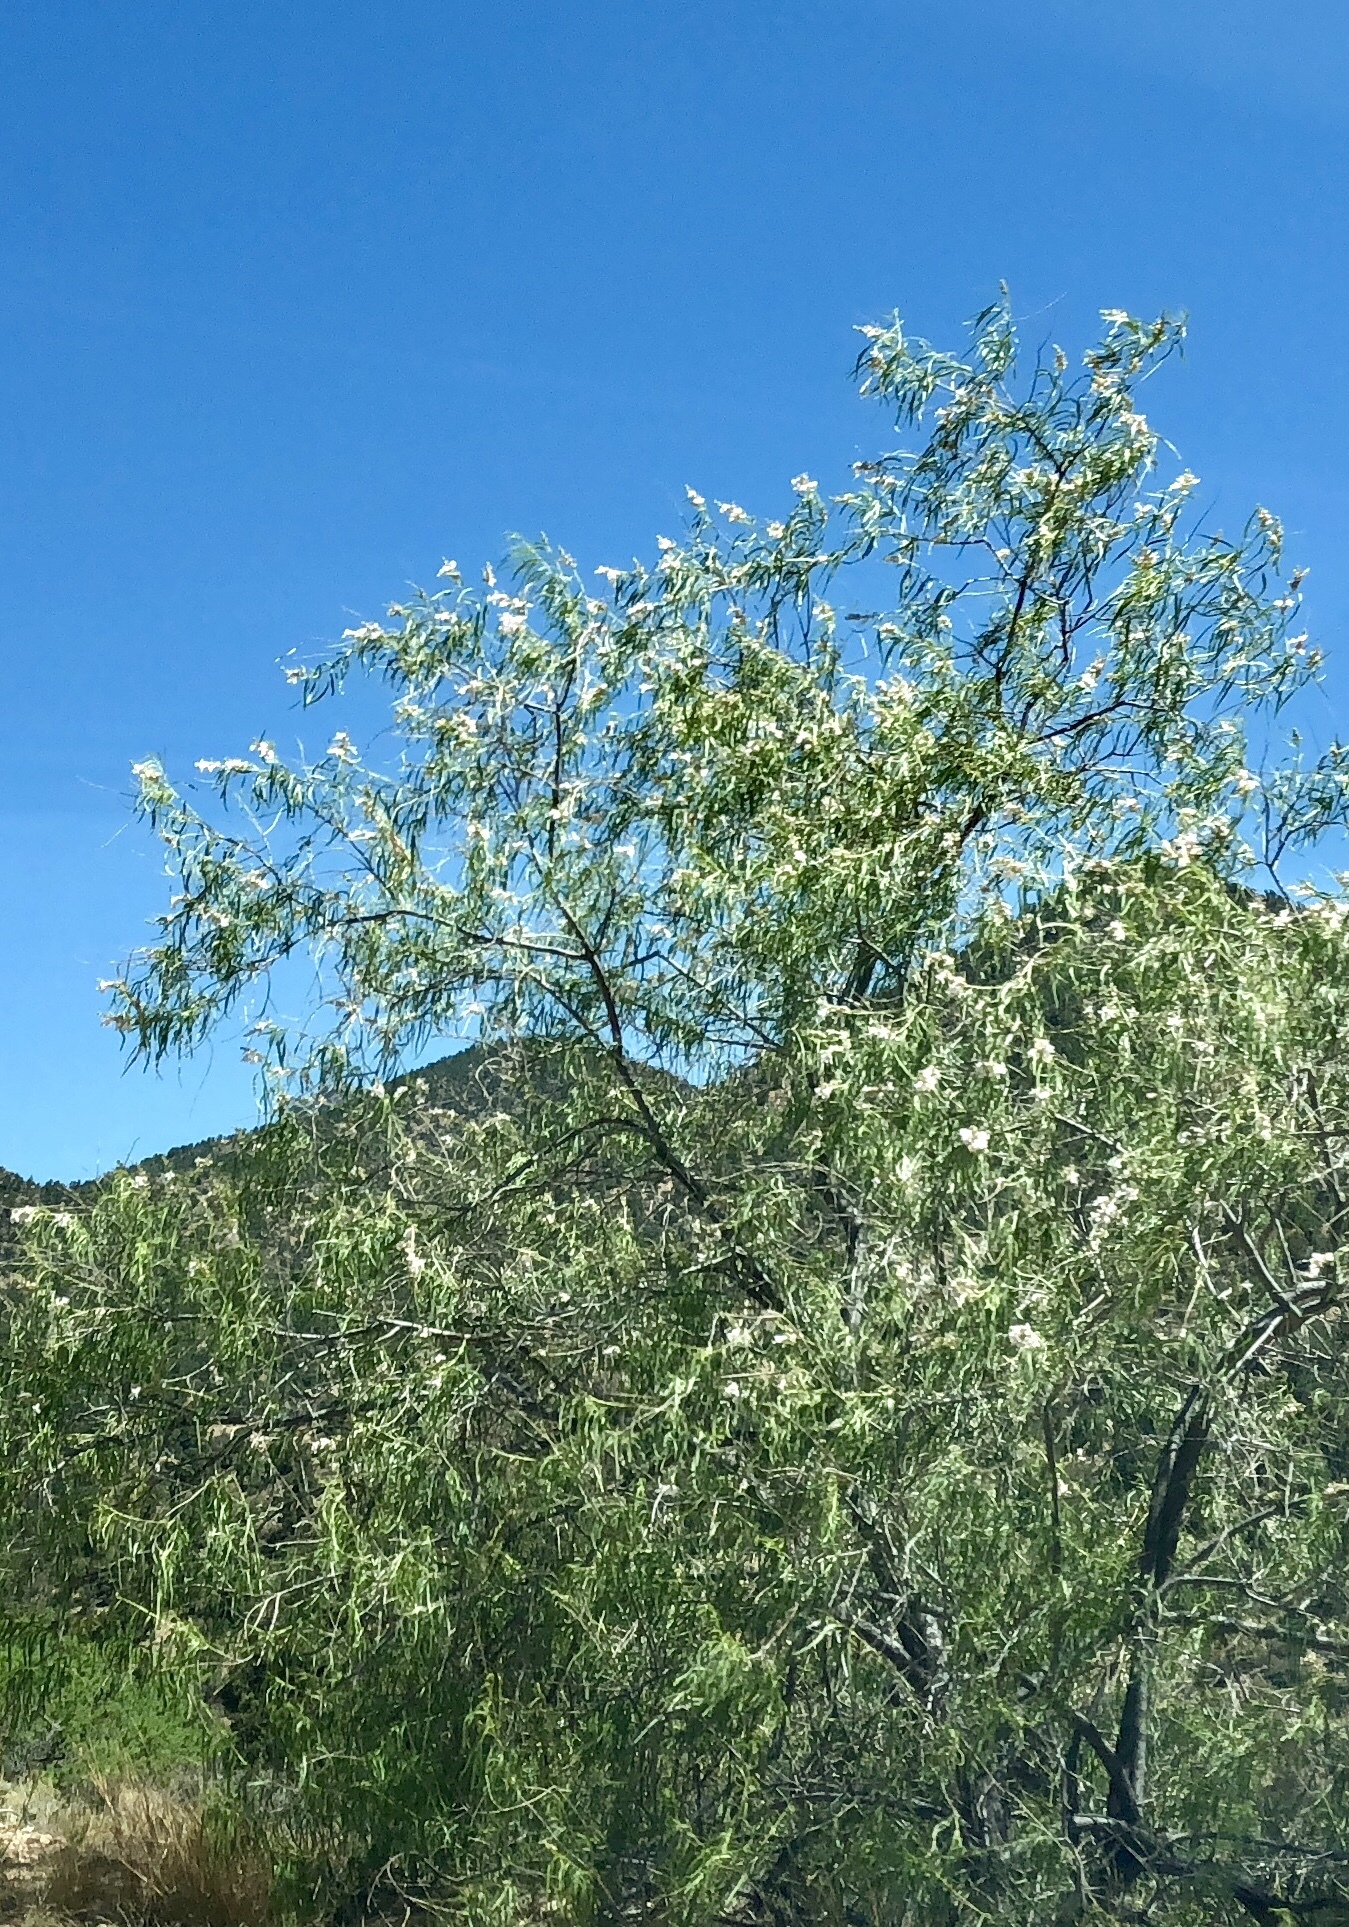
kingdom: Plantae
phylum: Tracheophyta
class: Magnoliopsida
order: Lamiales
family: Bignoniaceae
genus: Chilopsis
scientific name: Chilopsis linearis
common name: Desert-willow
